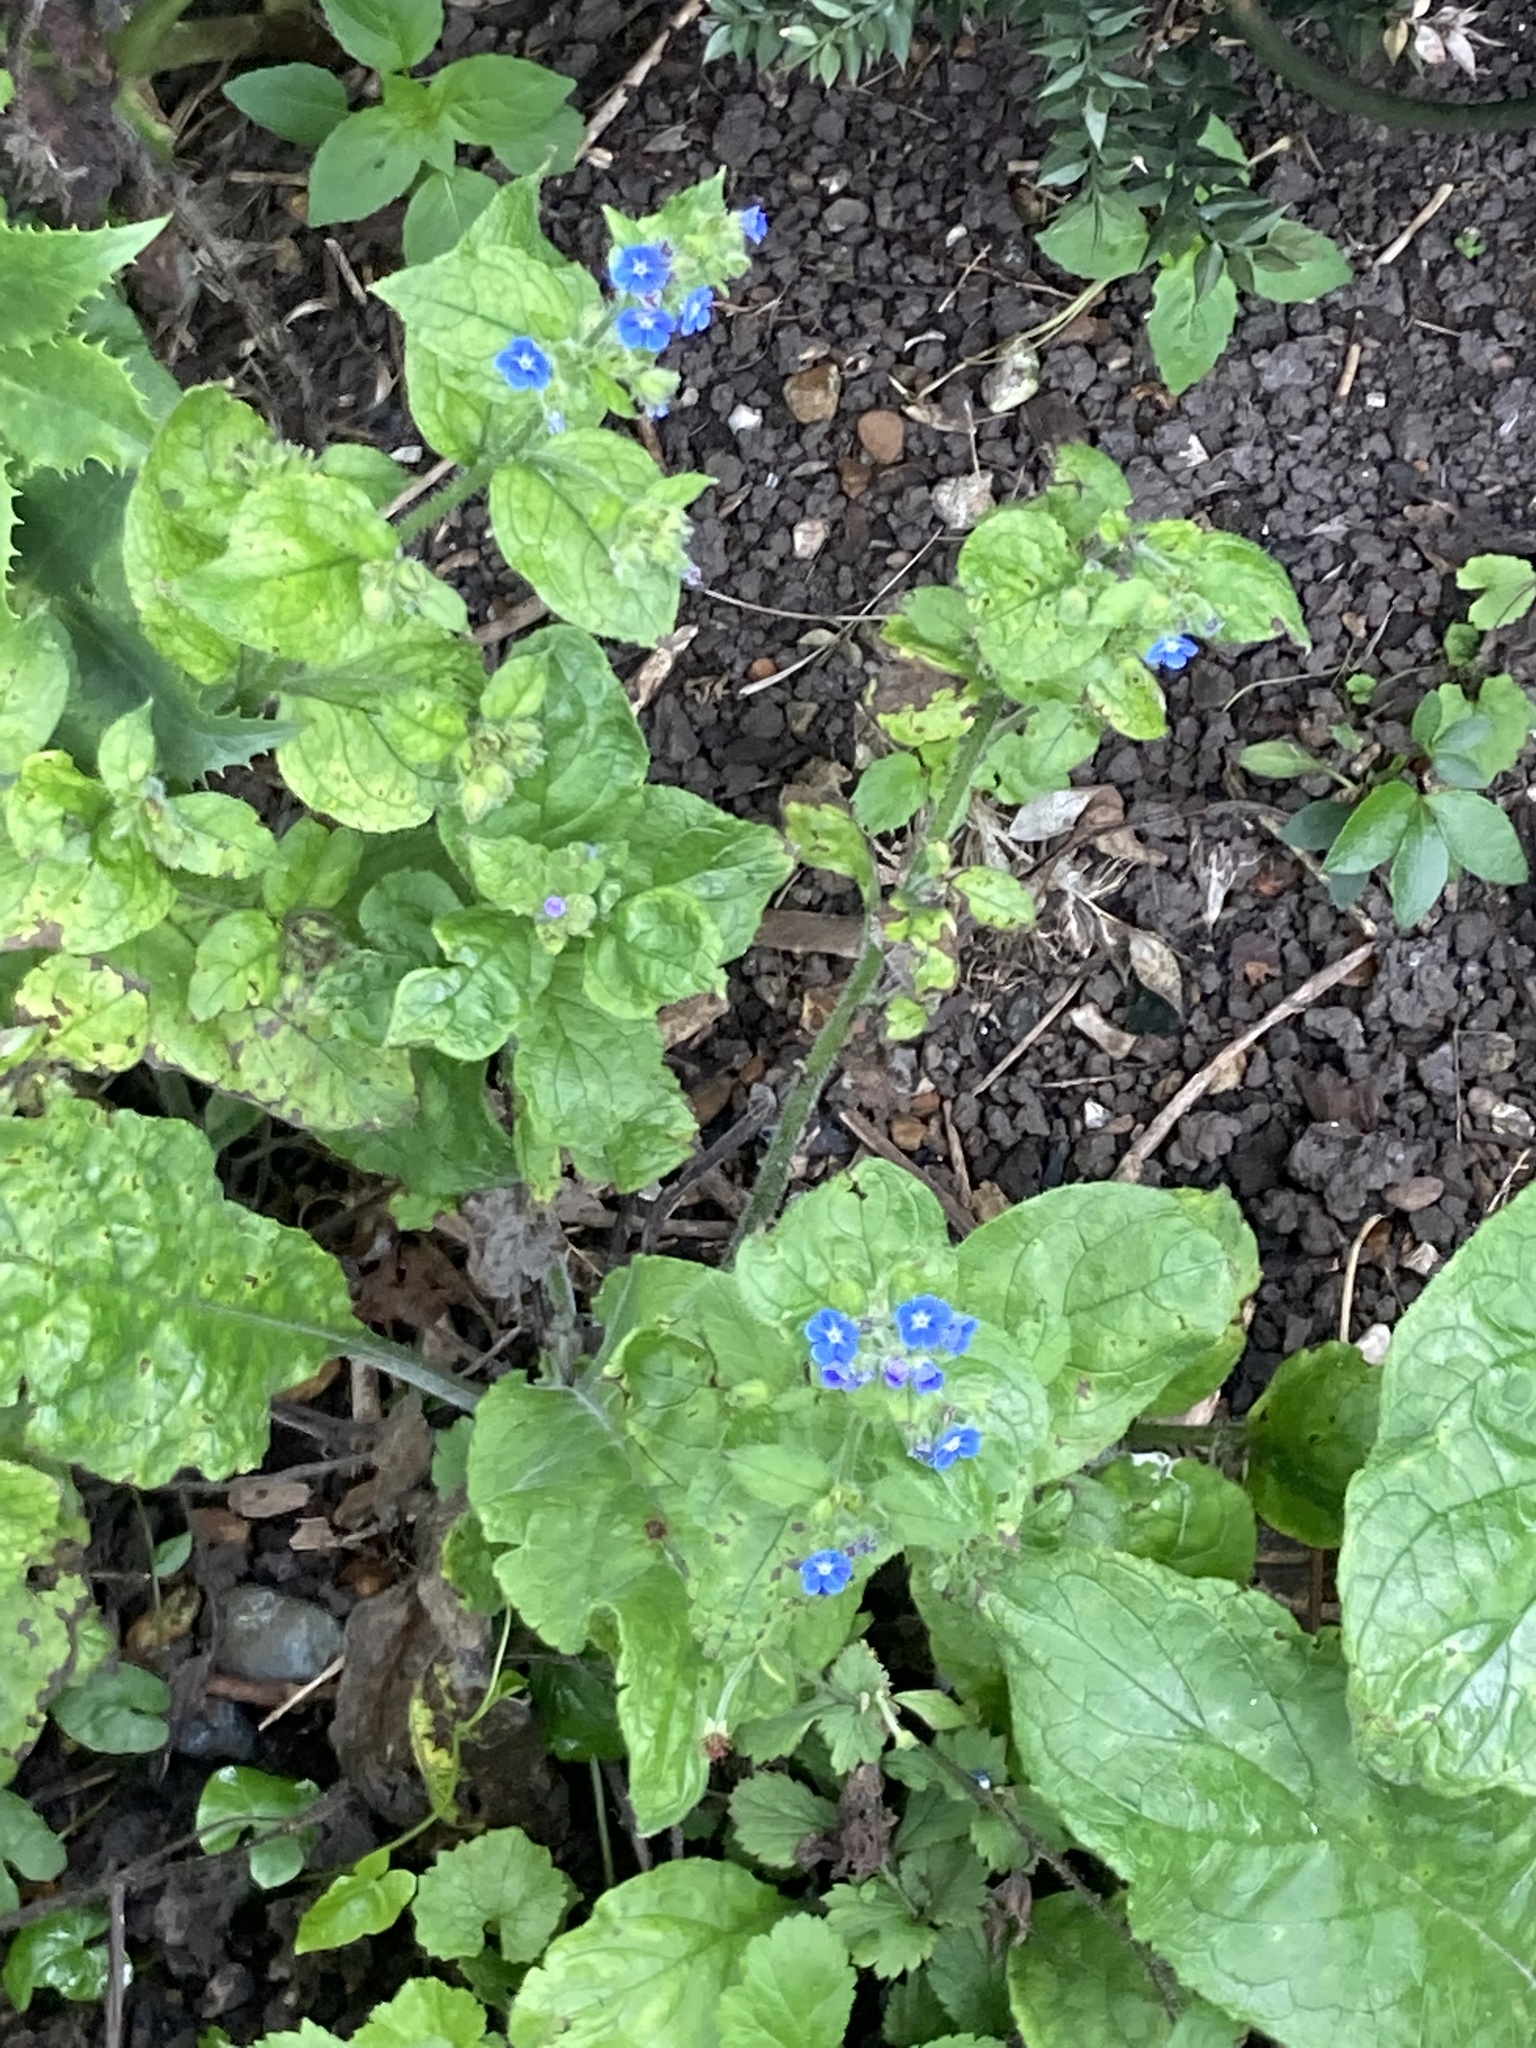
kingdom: Plantae
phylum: Tracheophyta
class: Magnoliopsida
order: Boraginales
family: Boraginaceae
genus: Pentaglottis
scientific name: Pentaglottis sempervirens
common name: Green alkanet
